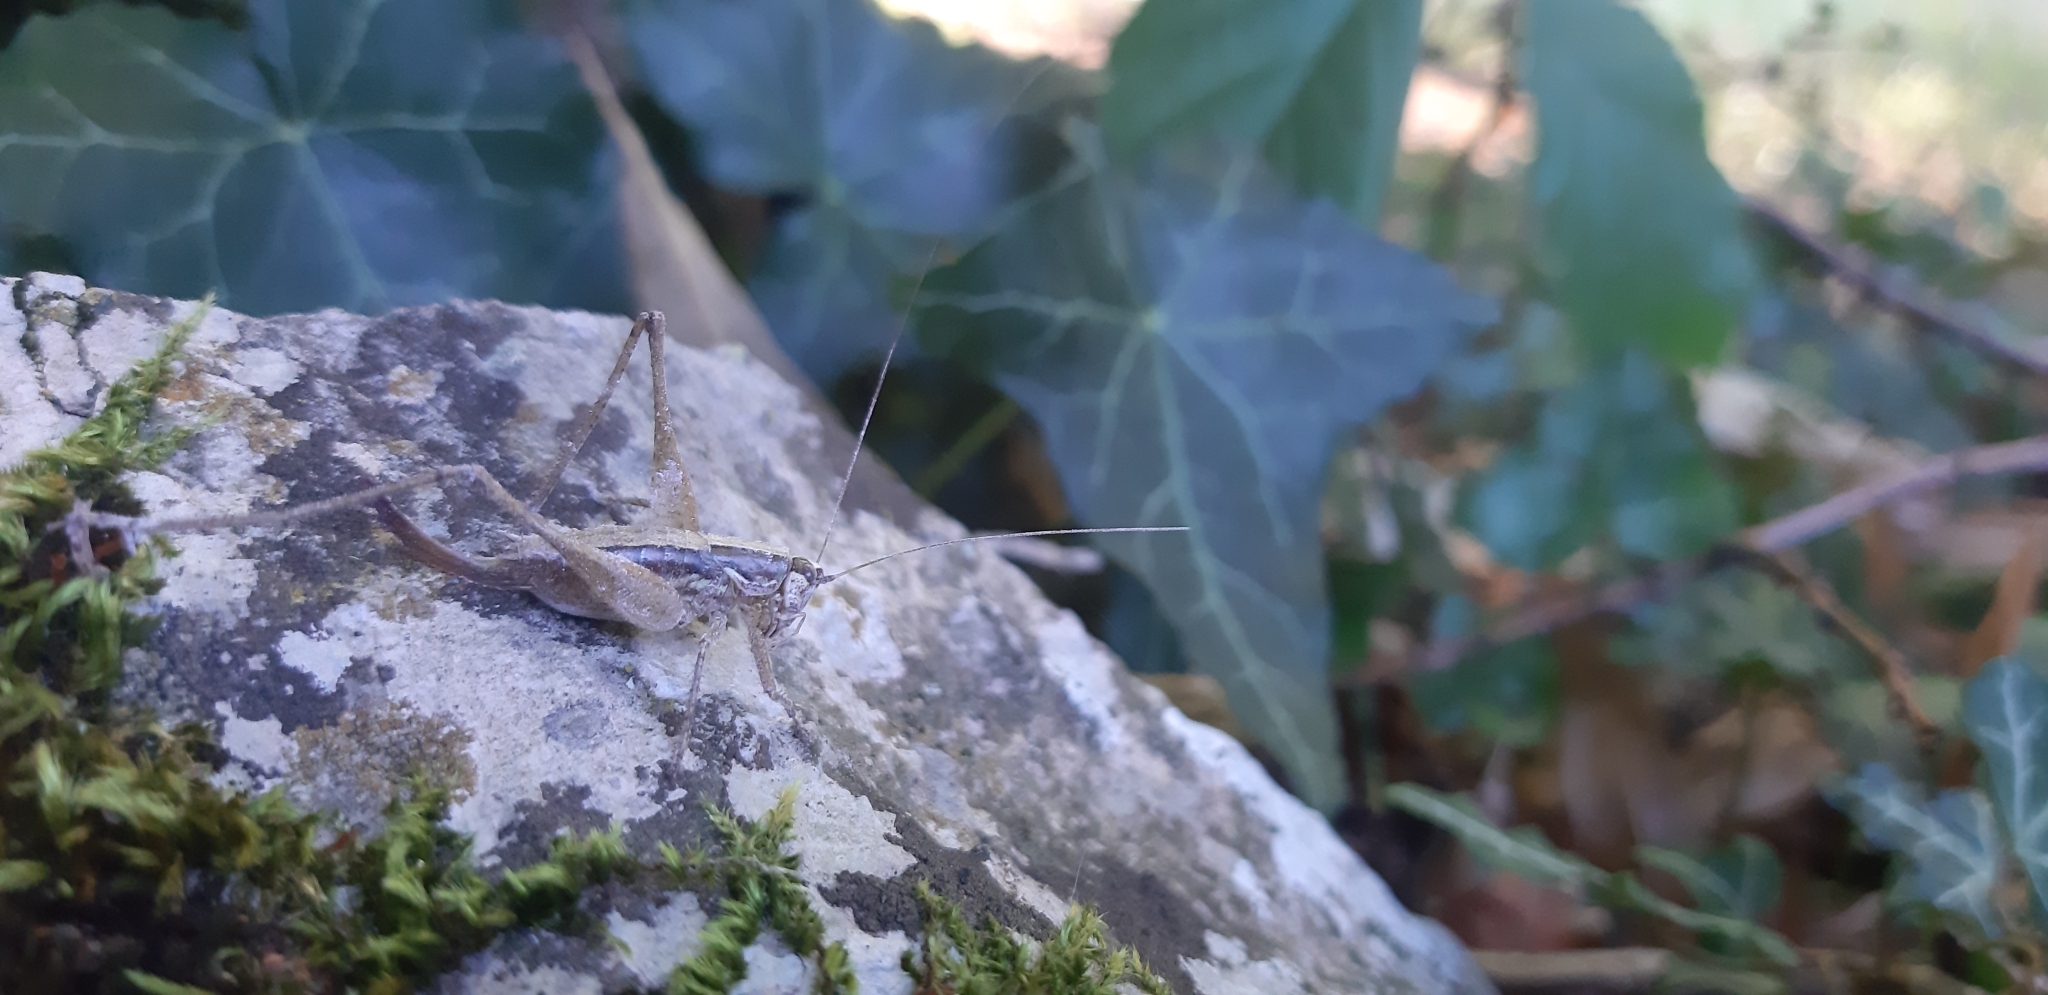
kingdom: Animalia
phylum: Arthropoda
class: Insecta
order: Orthoptera
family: Tettigoniidae
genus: Yersinella
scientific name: Yersinella raymondii
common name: Raymond's bush-cricket
